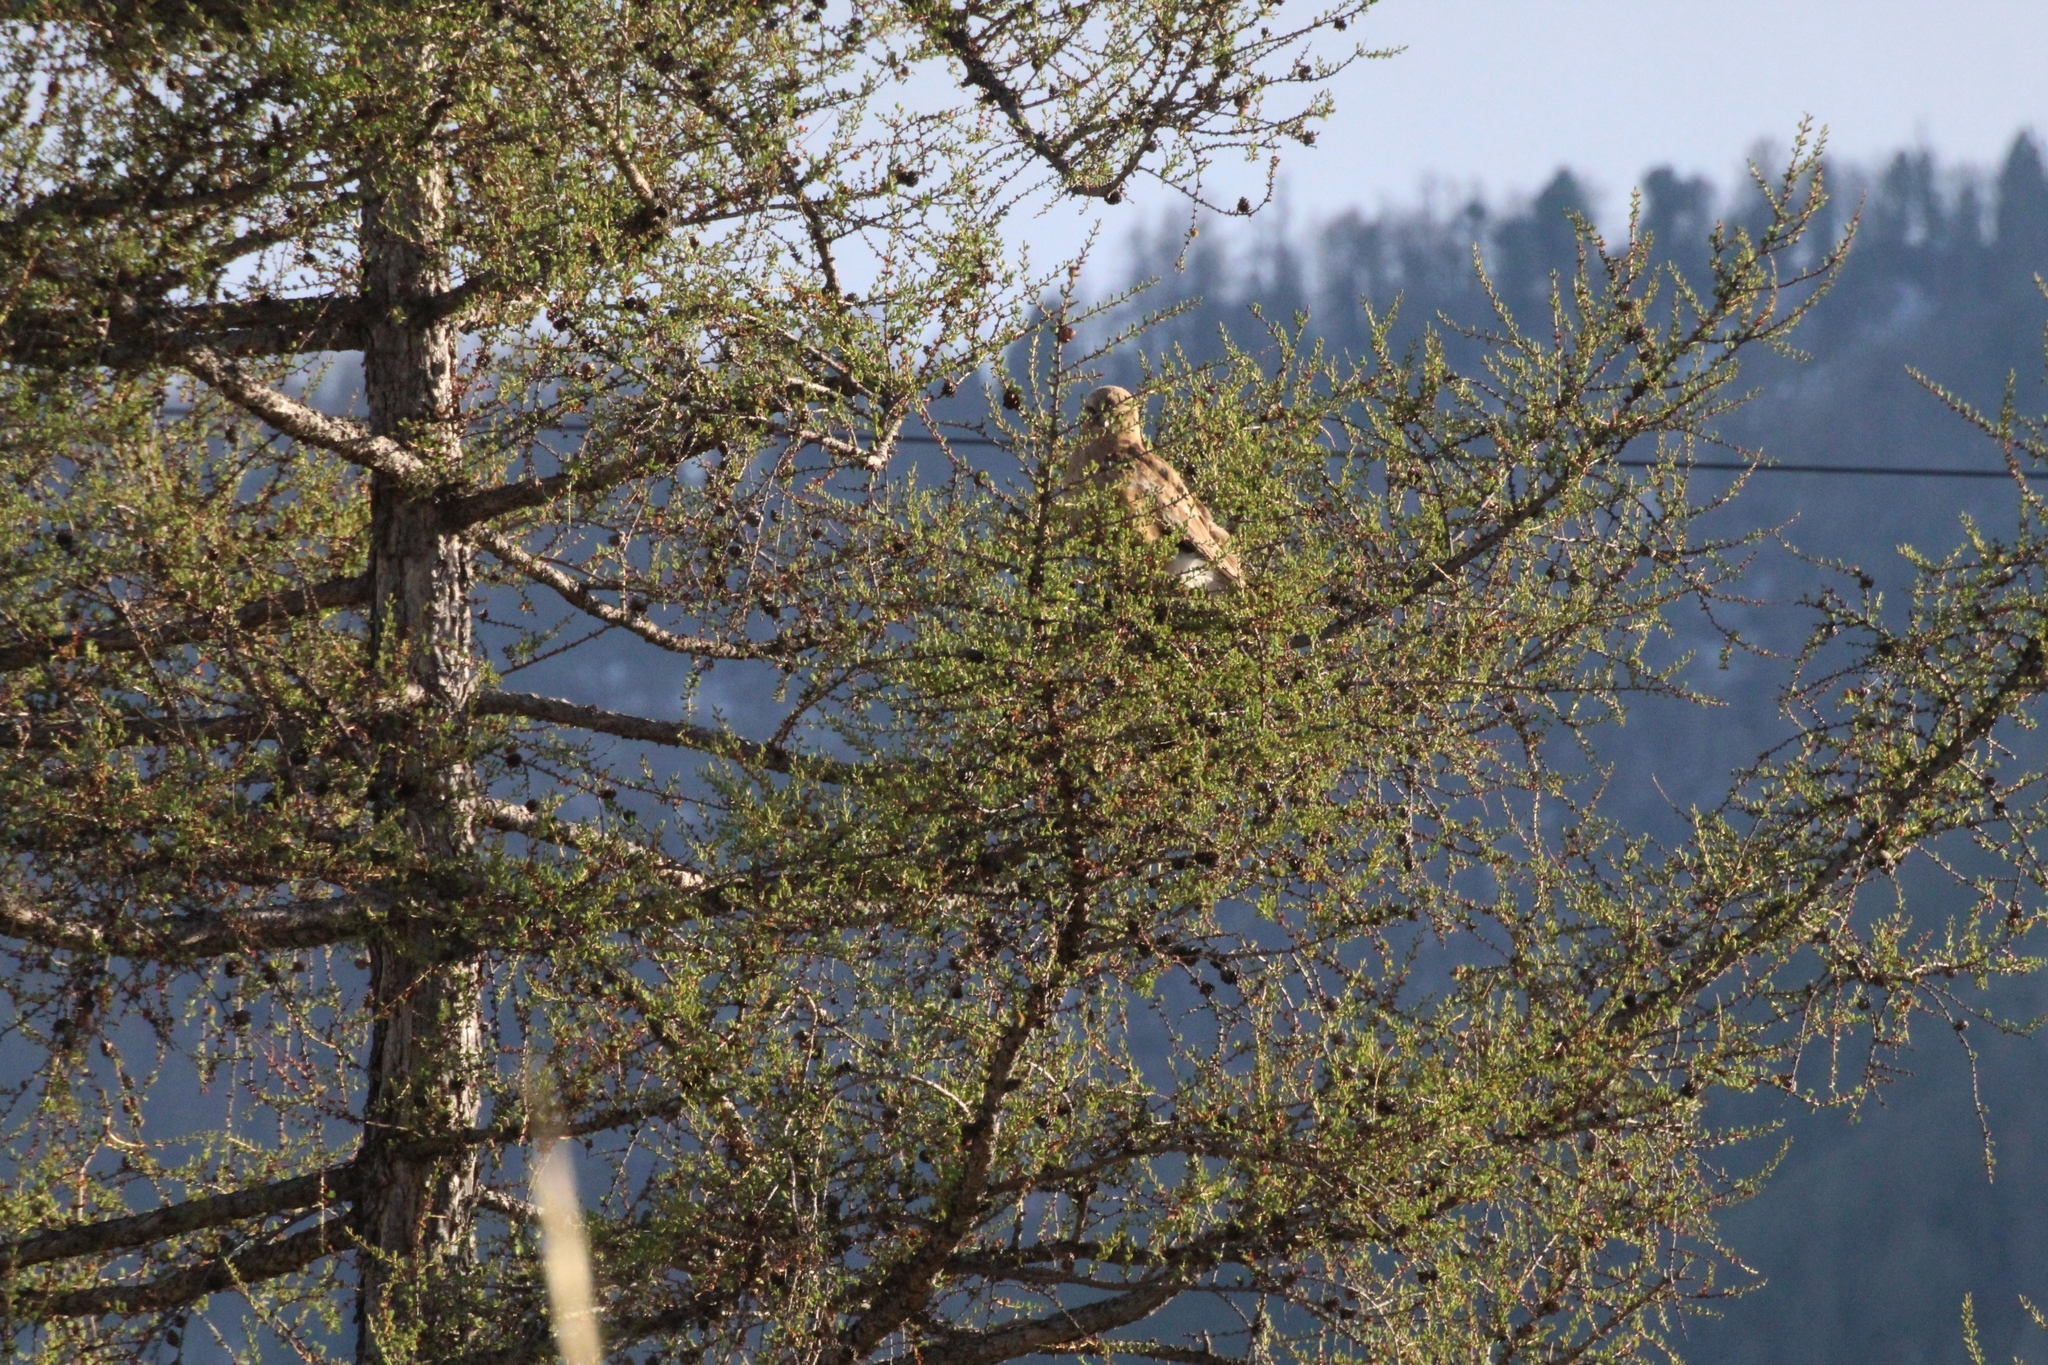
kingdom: Plantae
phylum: Tracheophyta
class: Pinopsida
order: Pinales
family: Pinaceae
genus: Larix
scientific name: Larix sibirica
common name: Siberian larch
